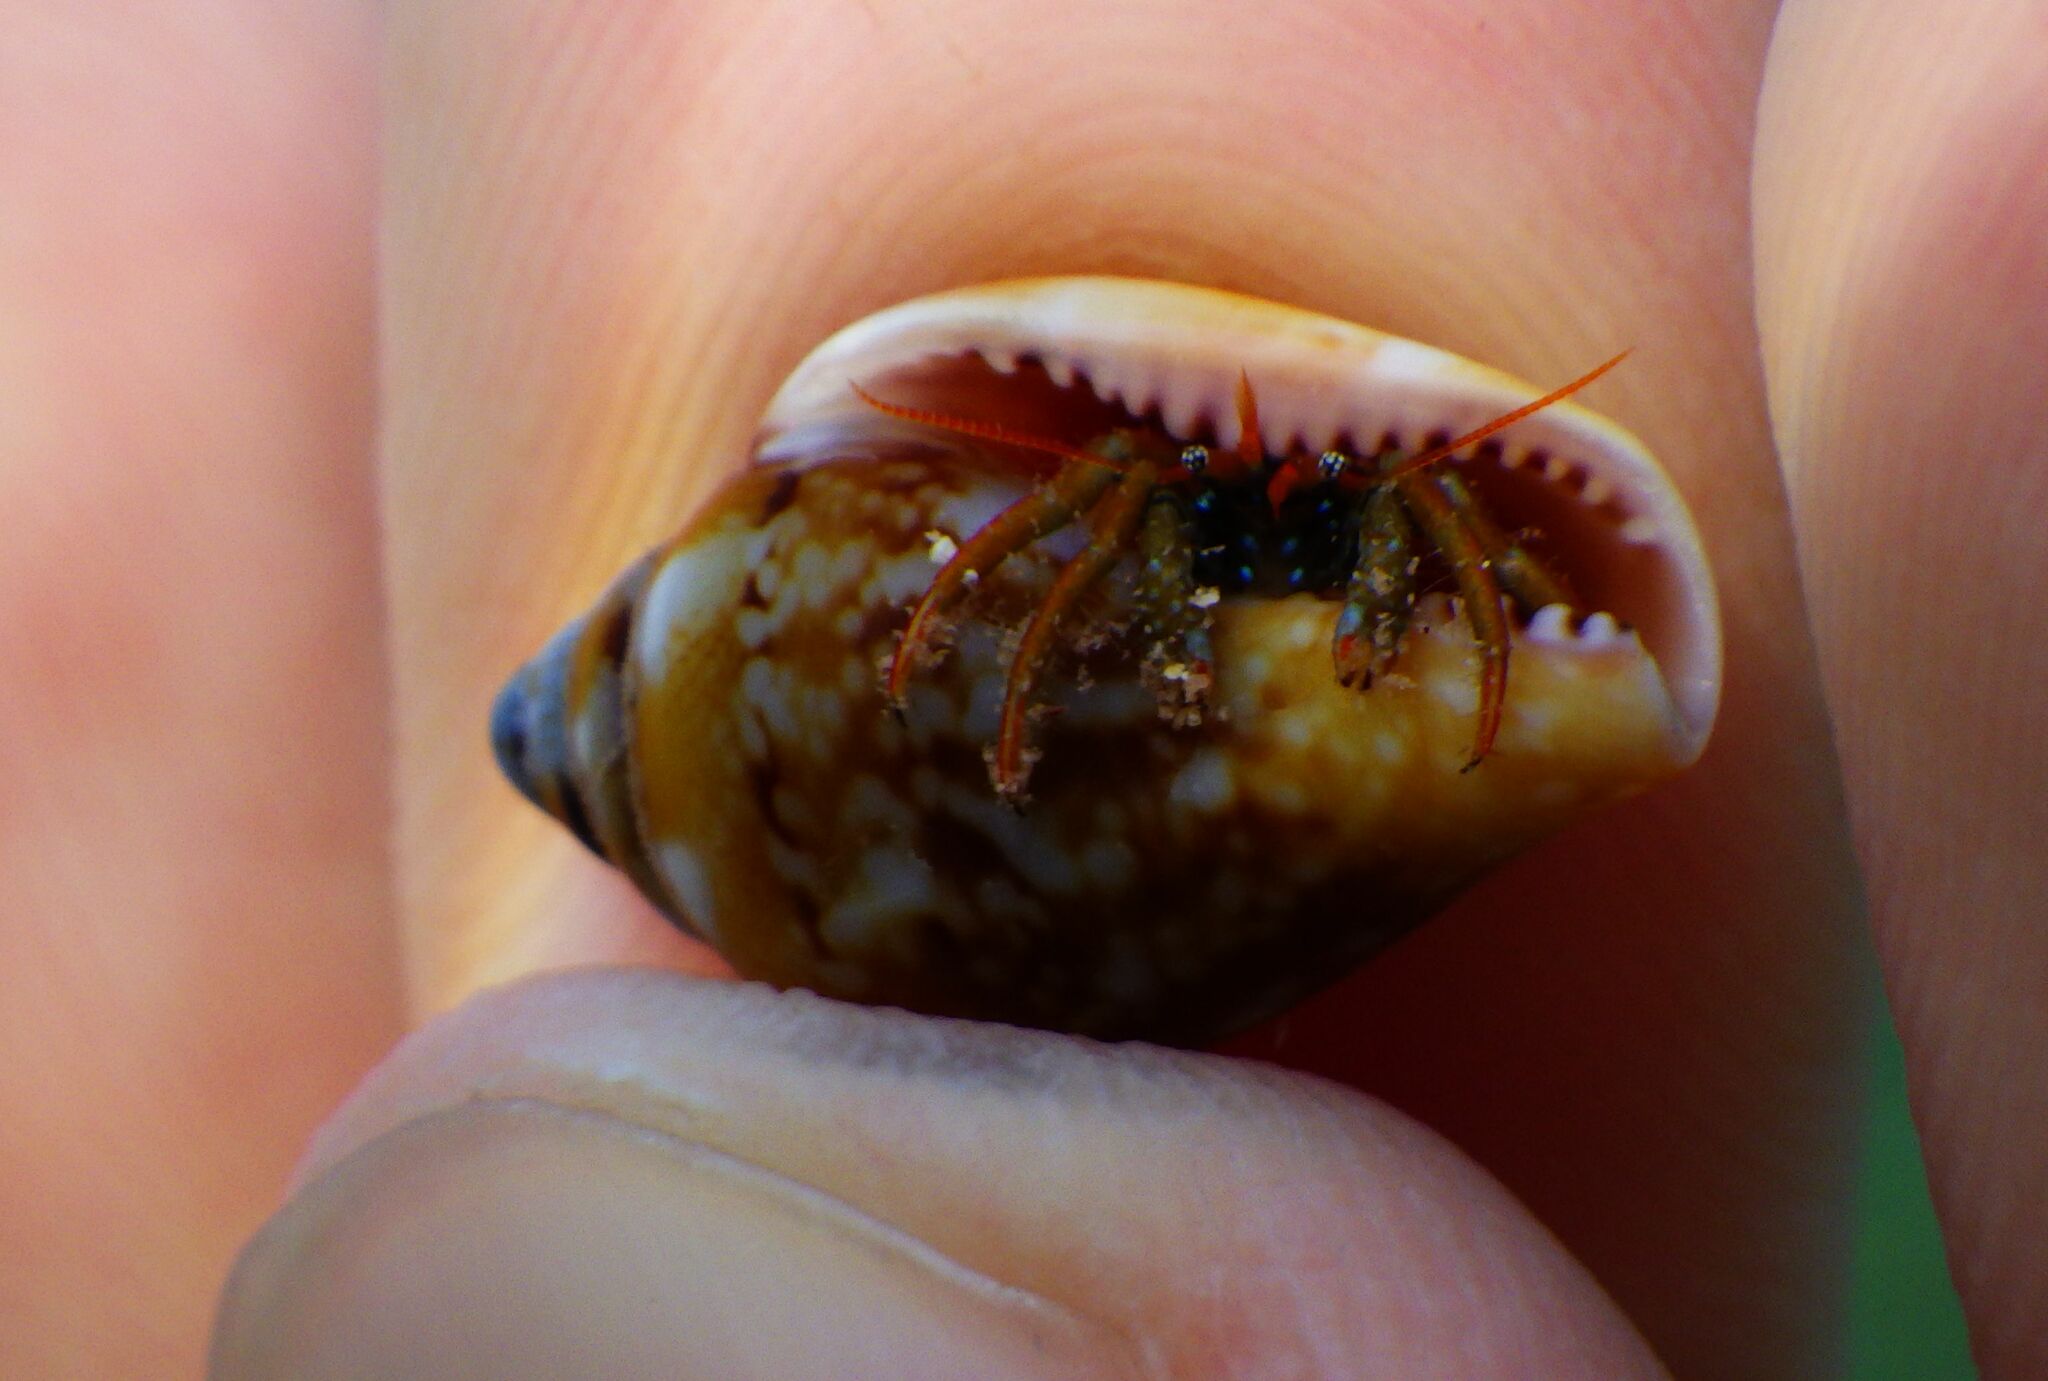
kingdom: Animalia
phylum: Arthropoda
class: Malacostraca
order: Decapoda
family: Diogenidae
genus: Clibanarius
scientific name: Clibanarius erythropus
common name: Hermit crab
